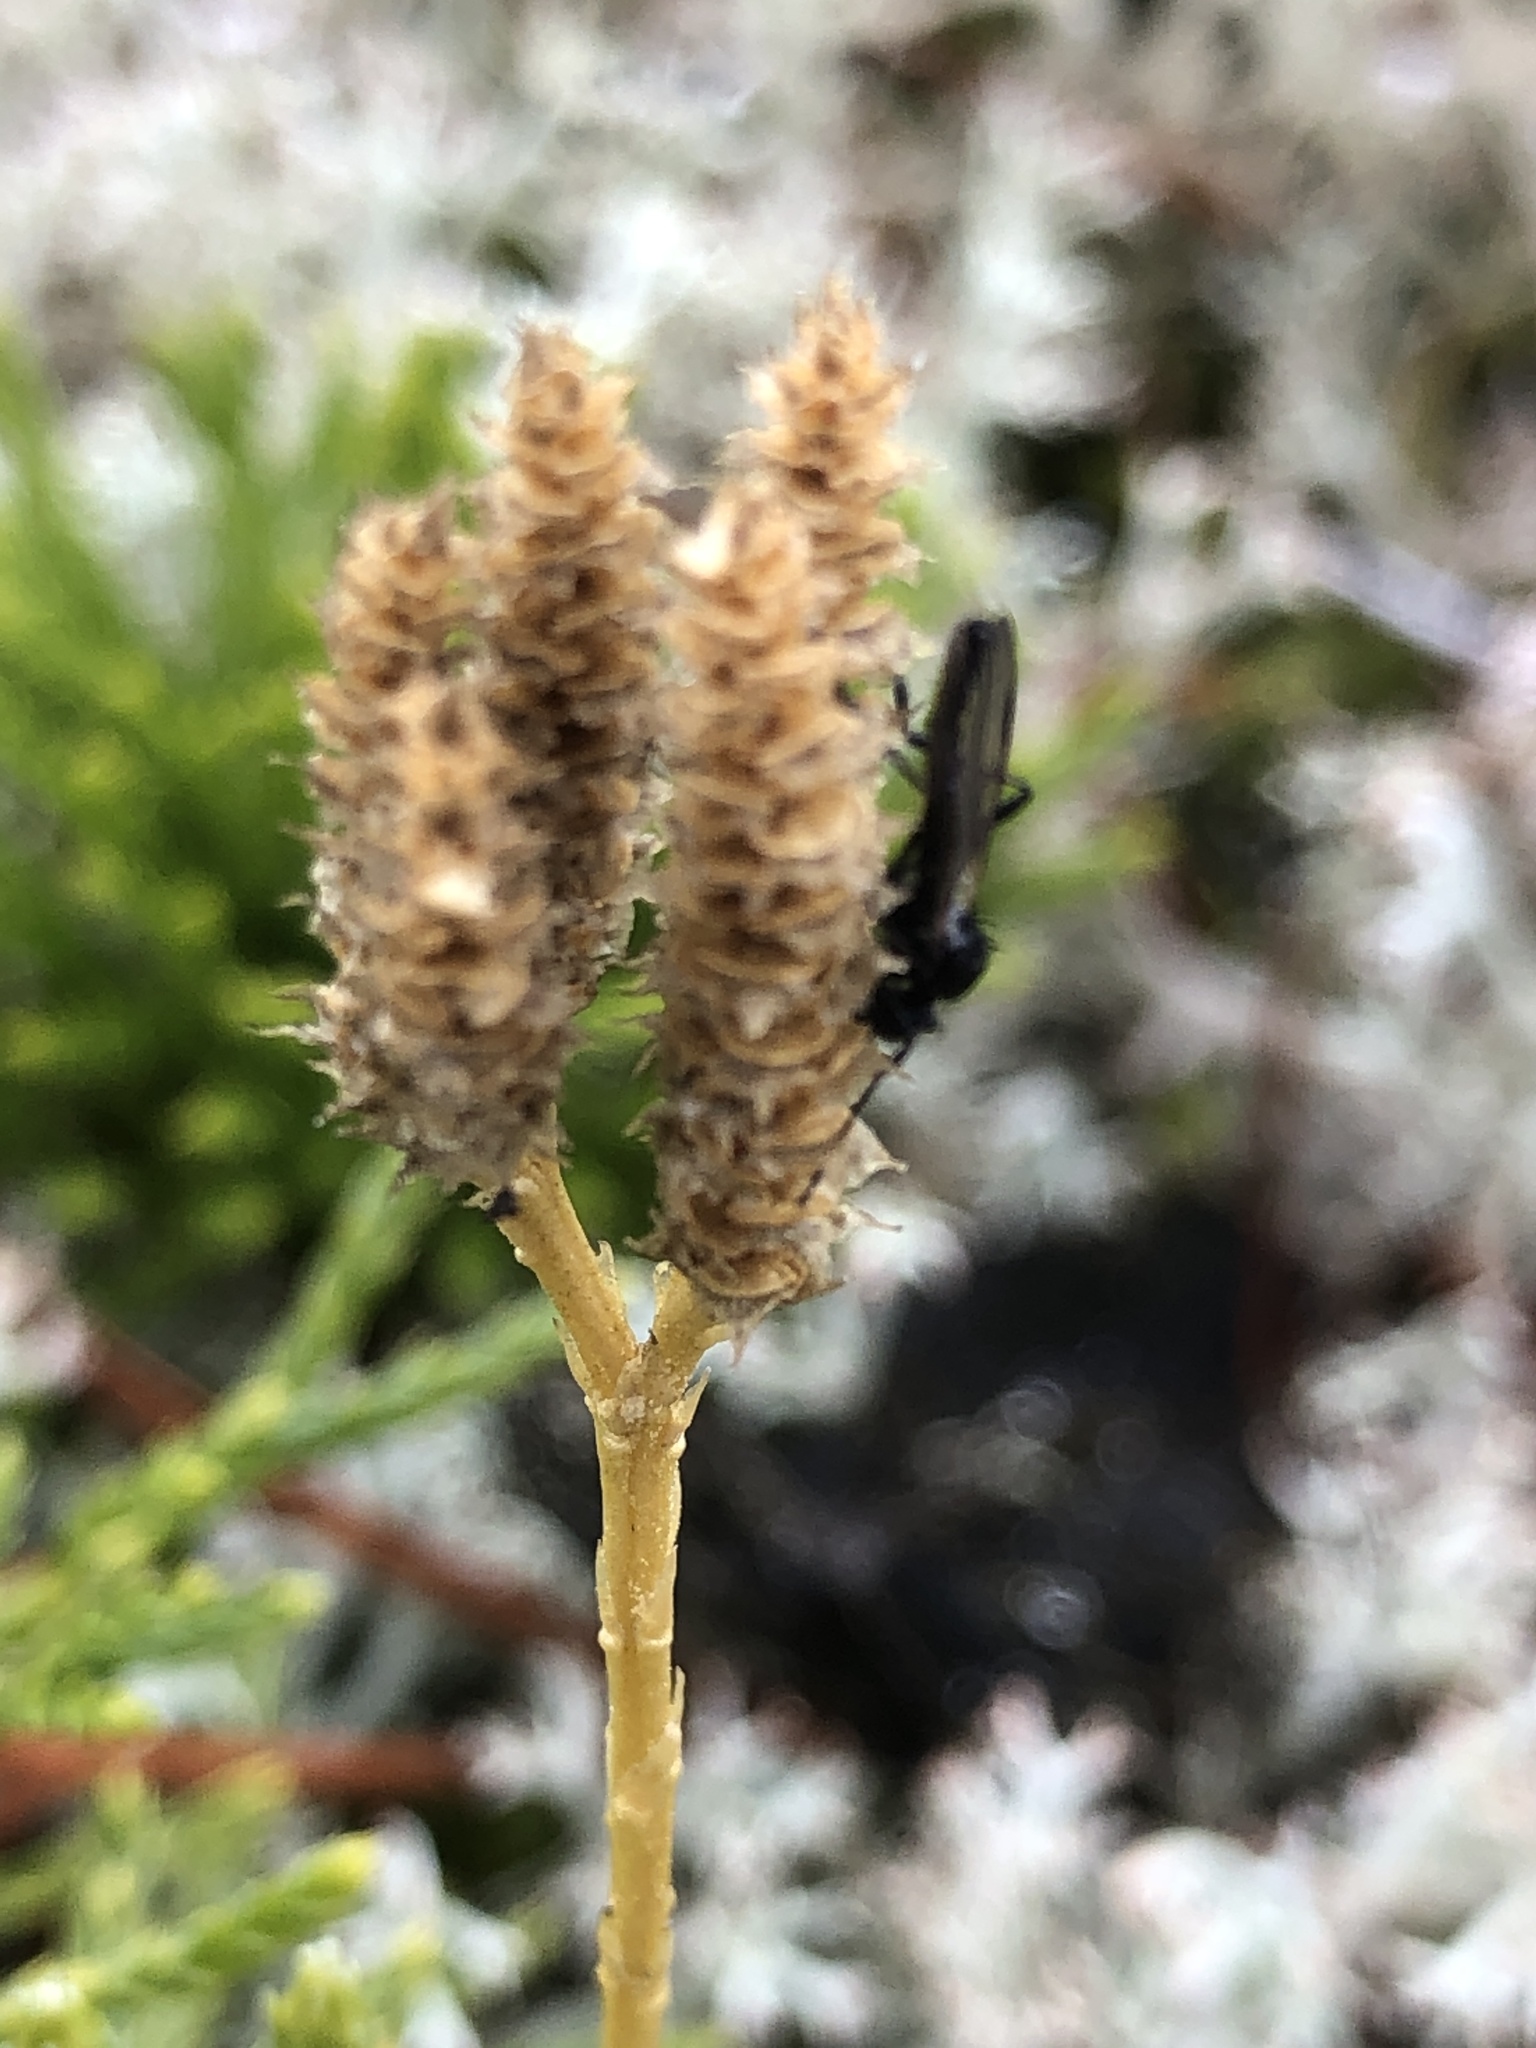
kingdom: Plantae
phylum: Tracheophyta
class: Lycopodiopsida
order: Lycopodiales
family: Lycopodiaceae
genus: Diphasiastrum
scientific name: Diphasiastrum complanatum
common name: Northern running-pine
